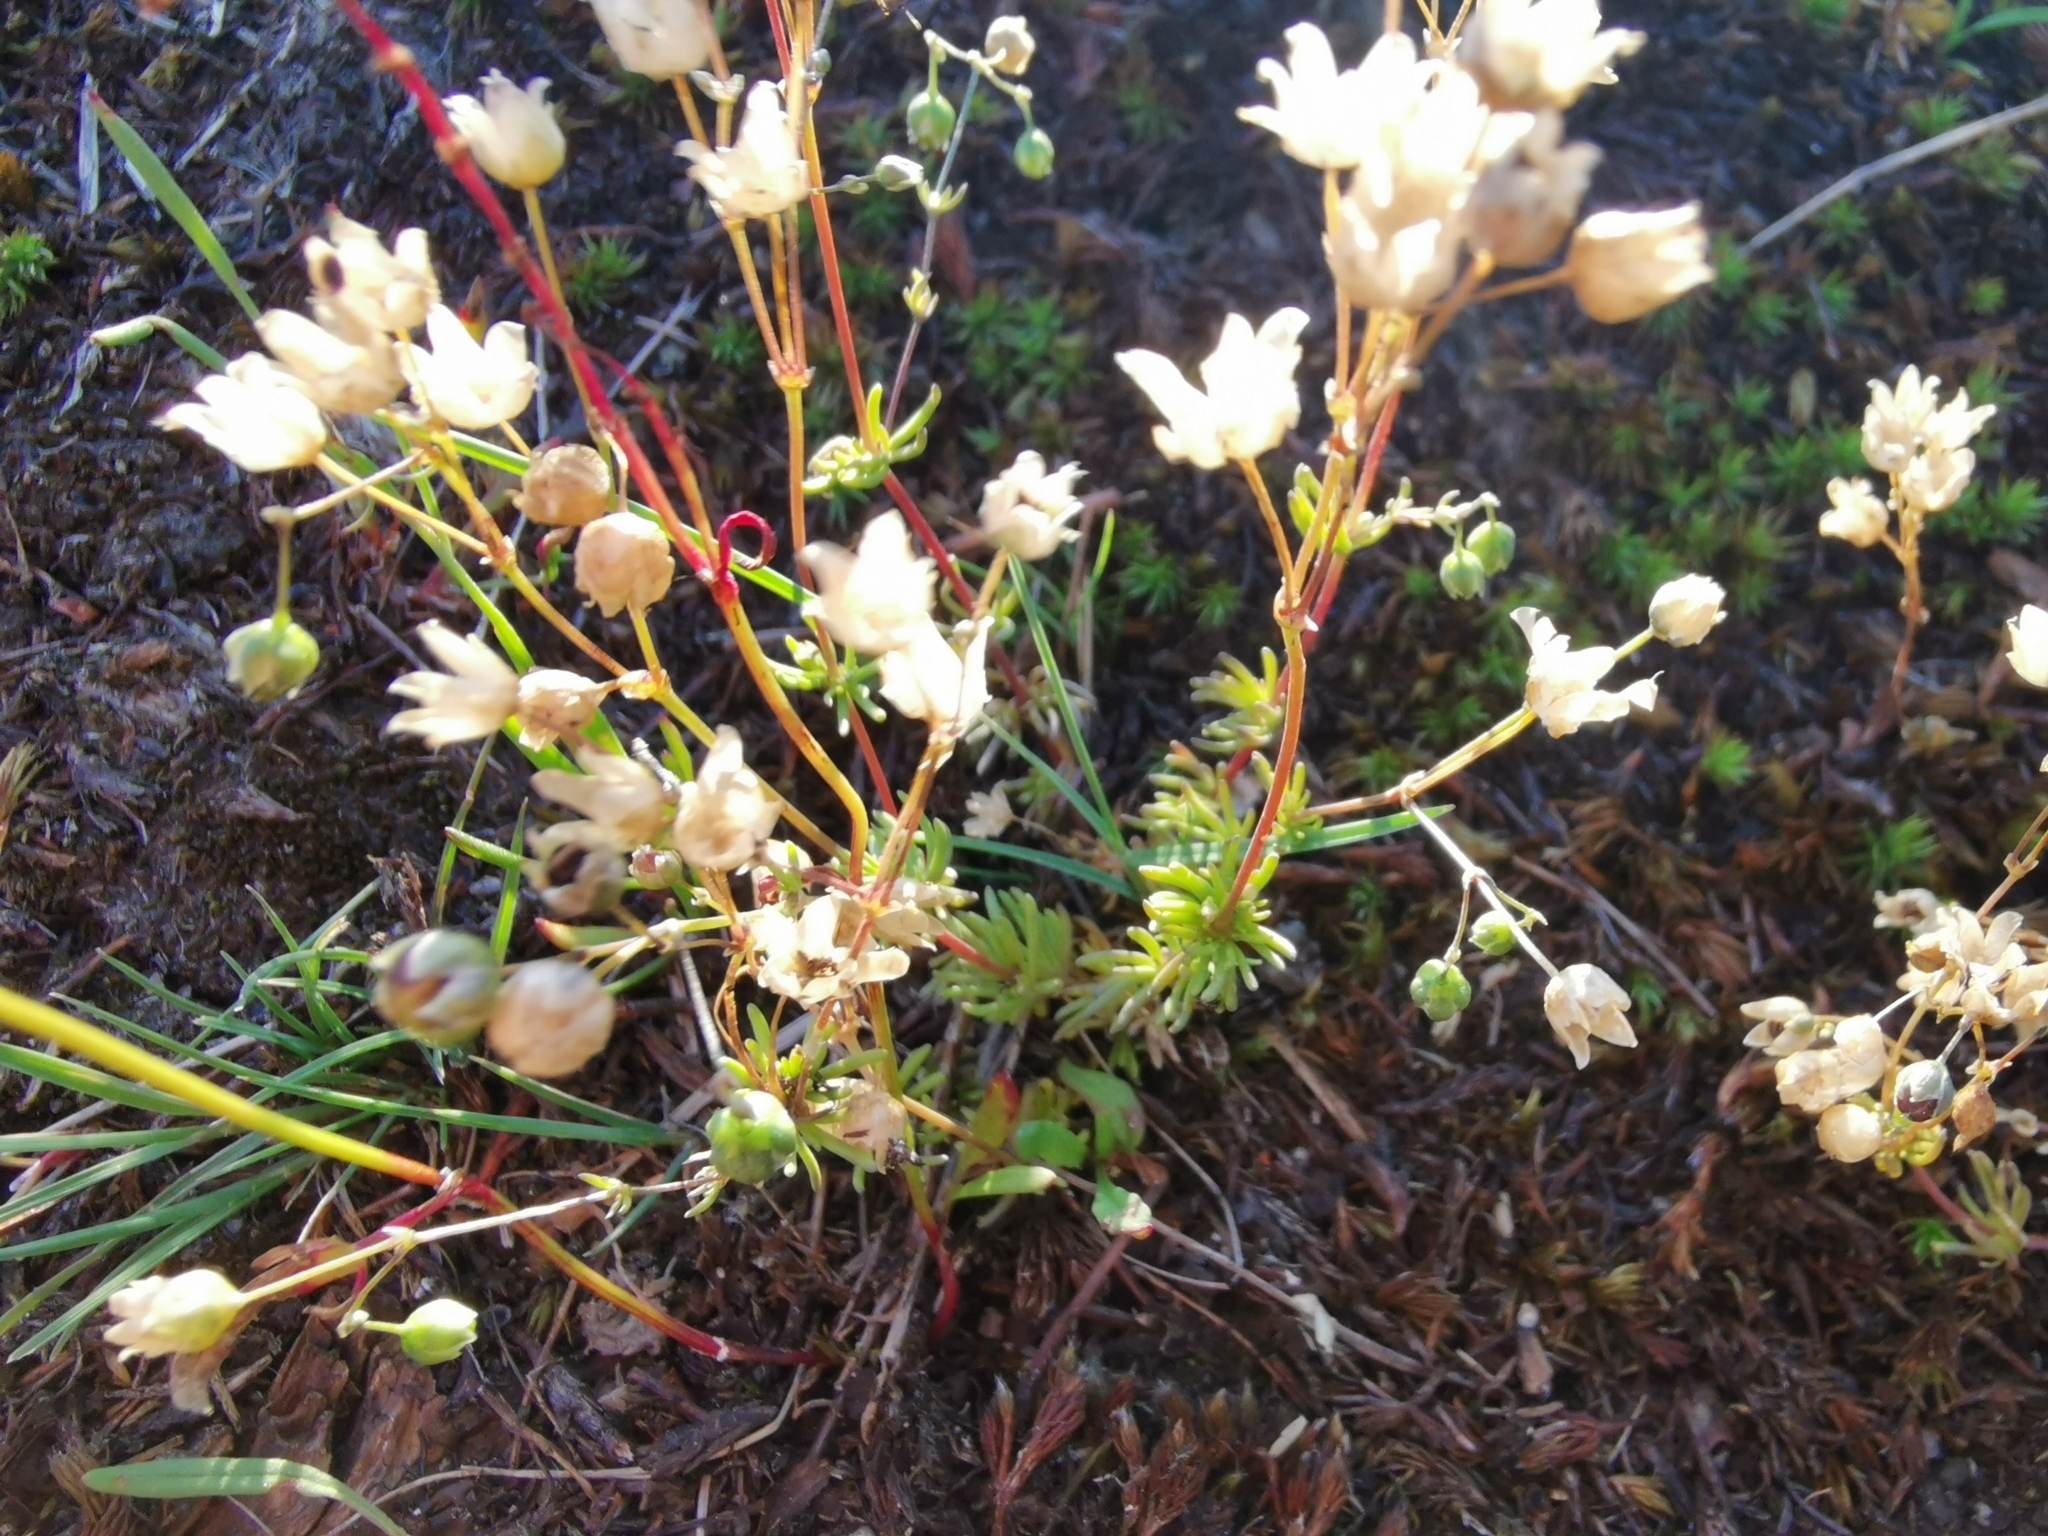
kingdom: Plantae
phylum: Tracheophyta
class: Magnoliopsida
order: Caryophyllales
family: Caryophyllaceae
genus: Spergula
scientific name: Spergula arvensis
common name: Corn spurrey
